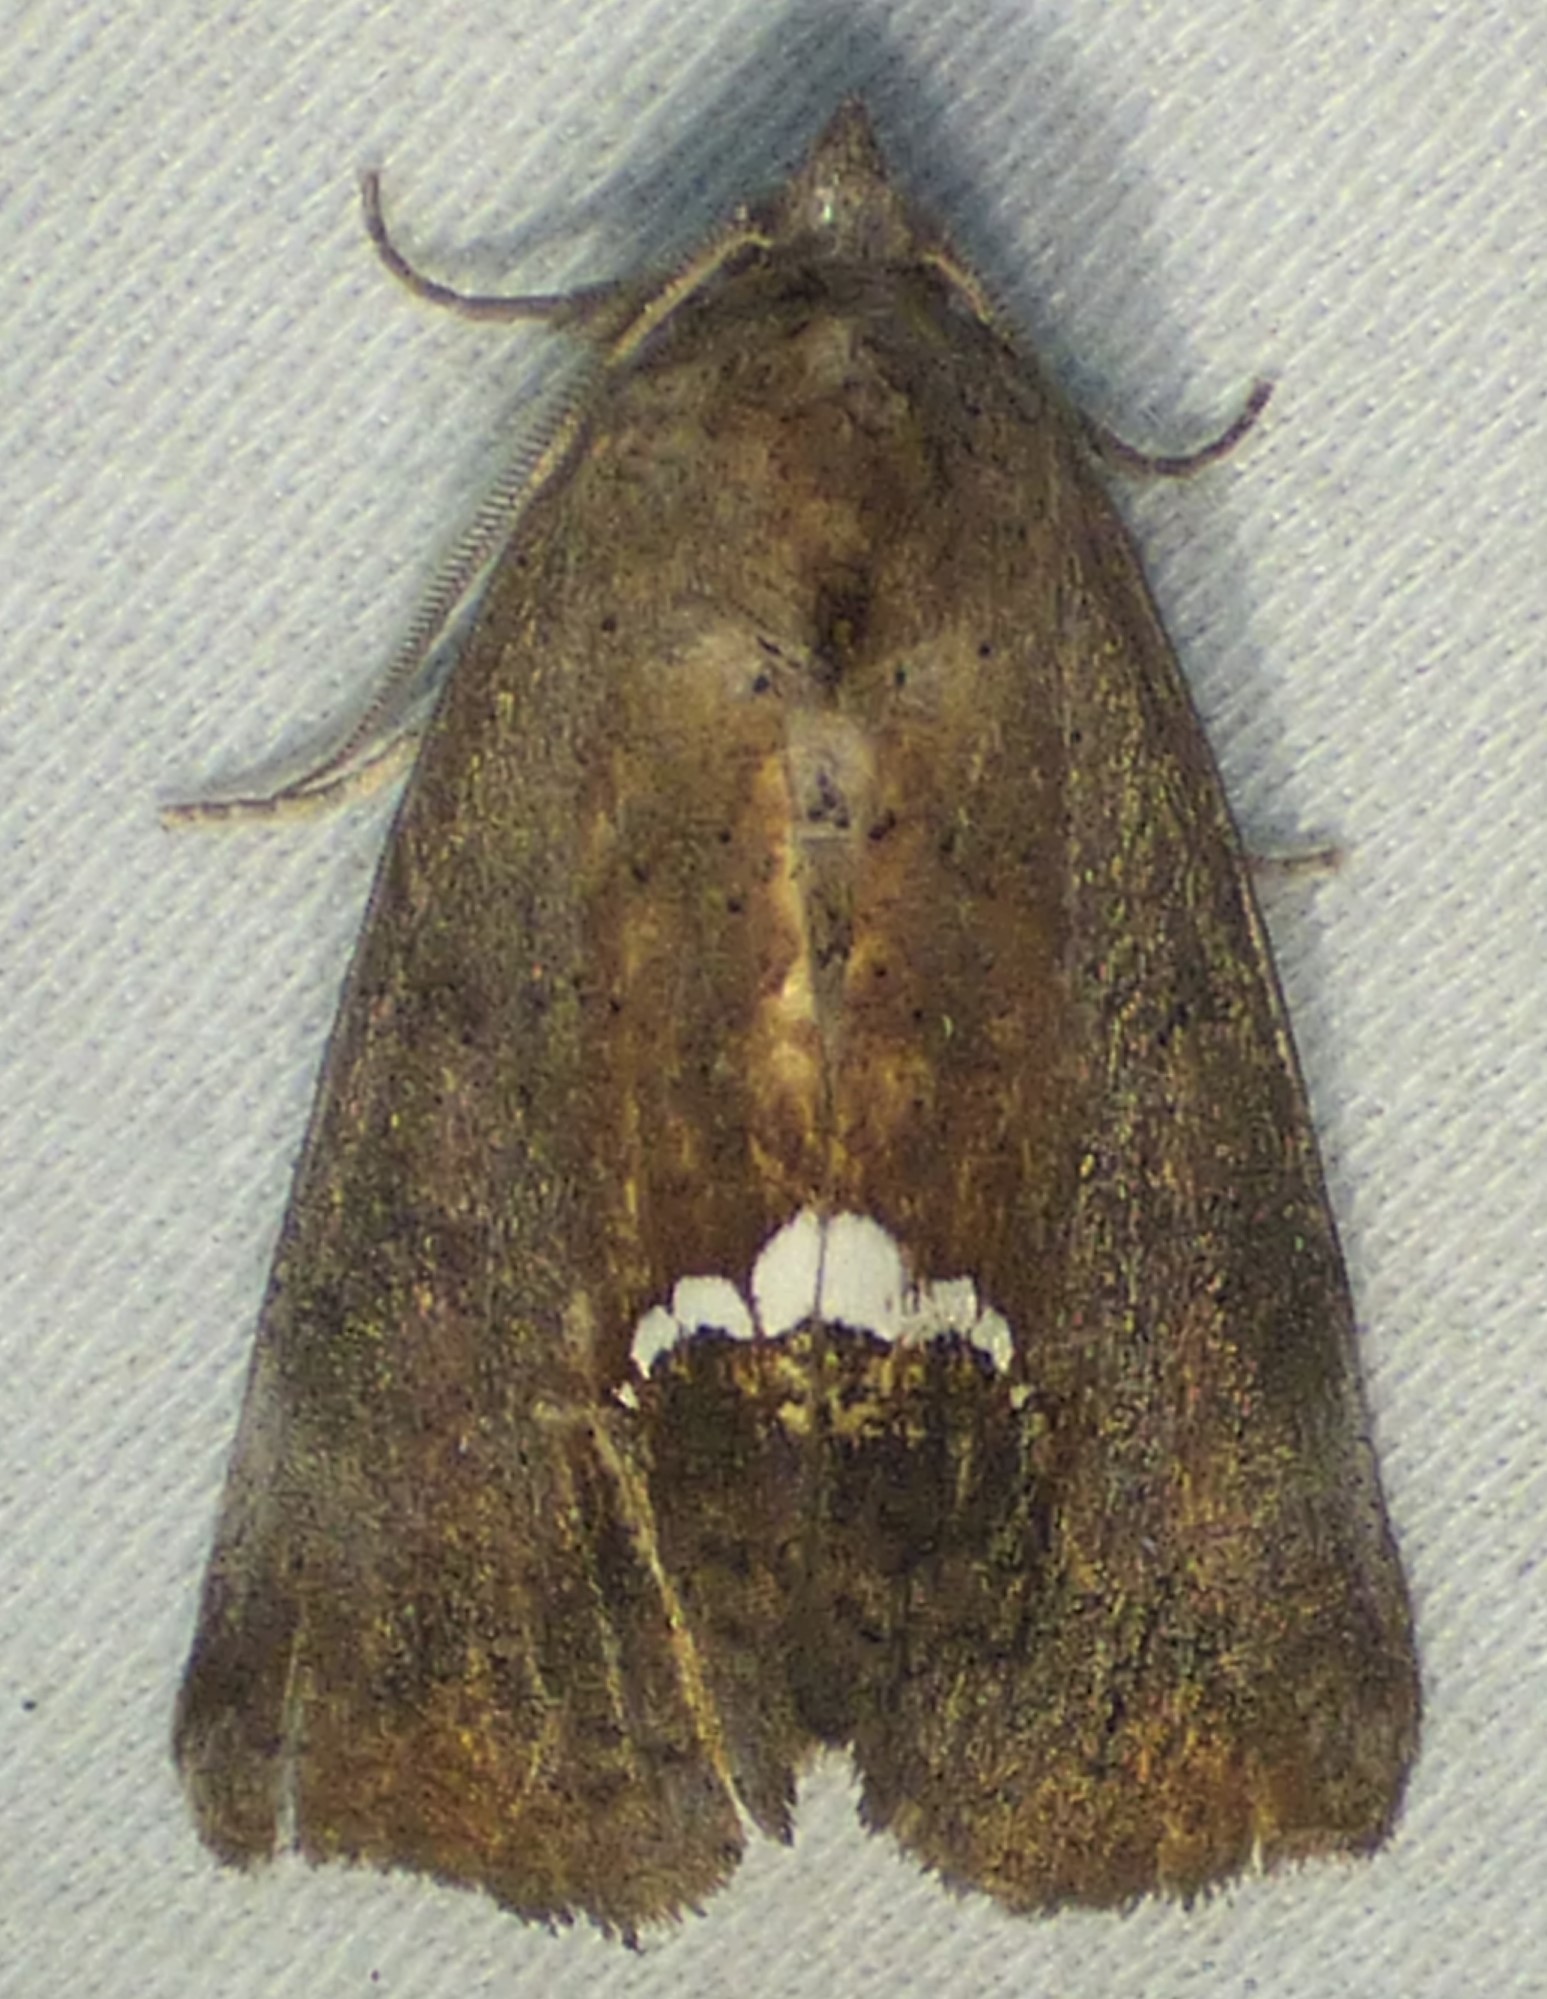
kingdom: Animalia
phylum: Arthropoda
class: Insecta
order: Lepidoptera
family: Erebidae
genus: Hypsoropha
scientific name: Hypsoropha hormos
